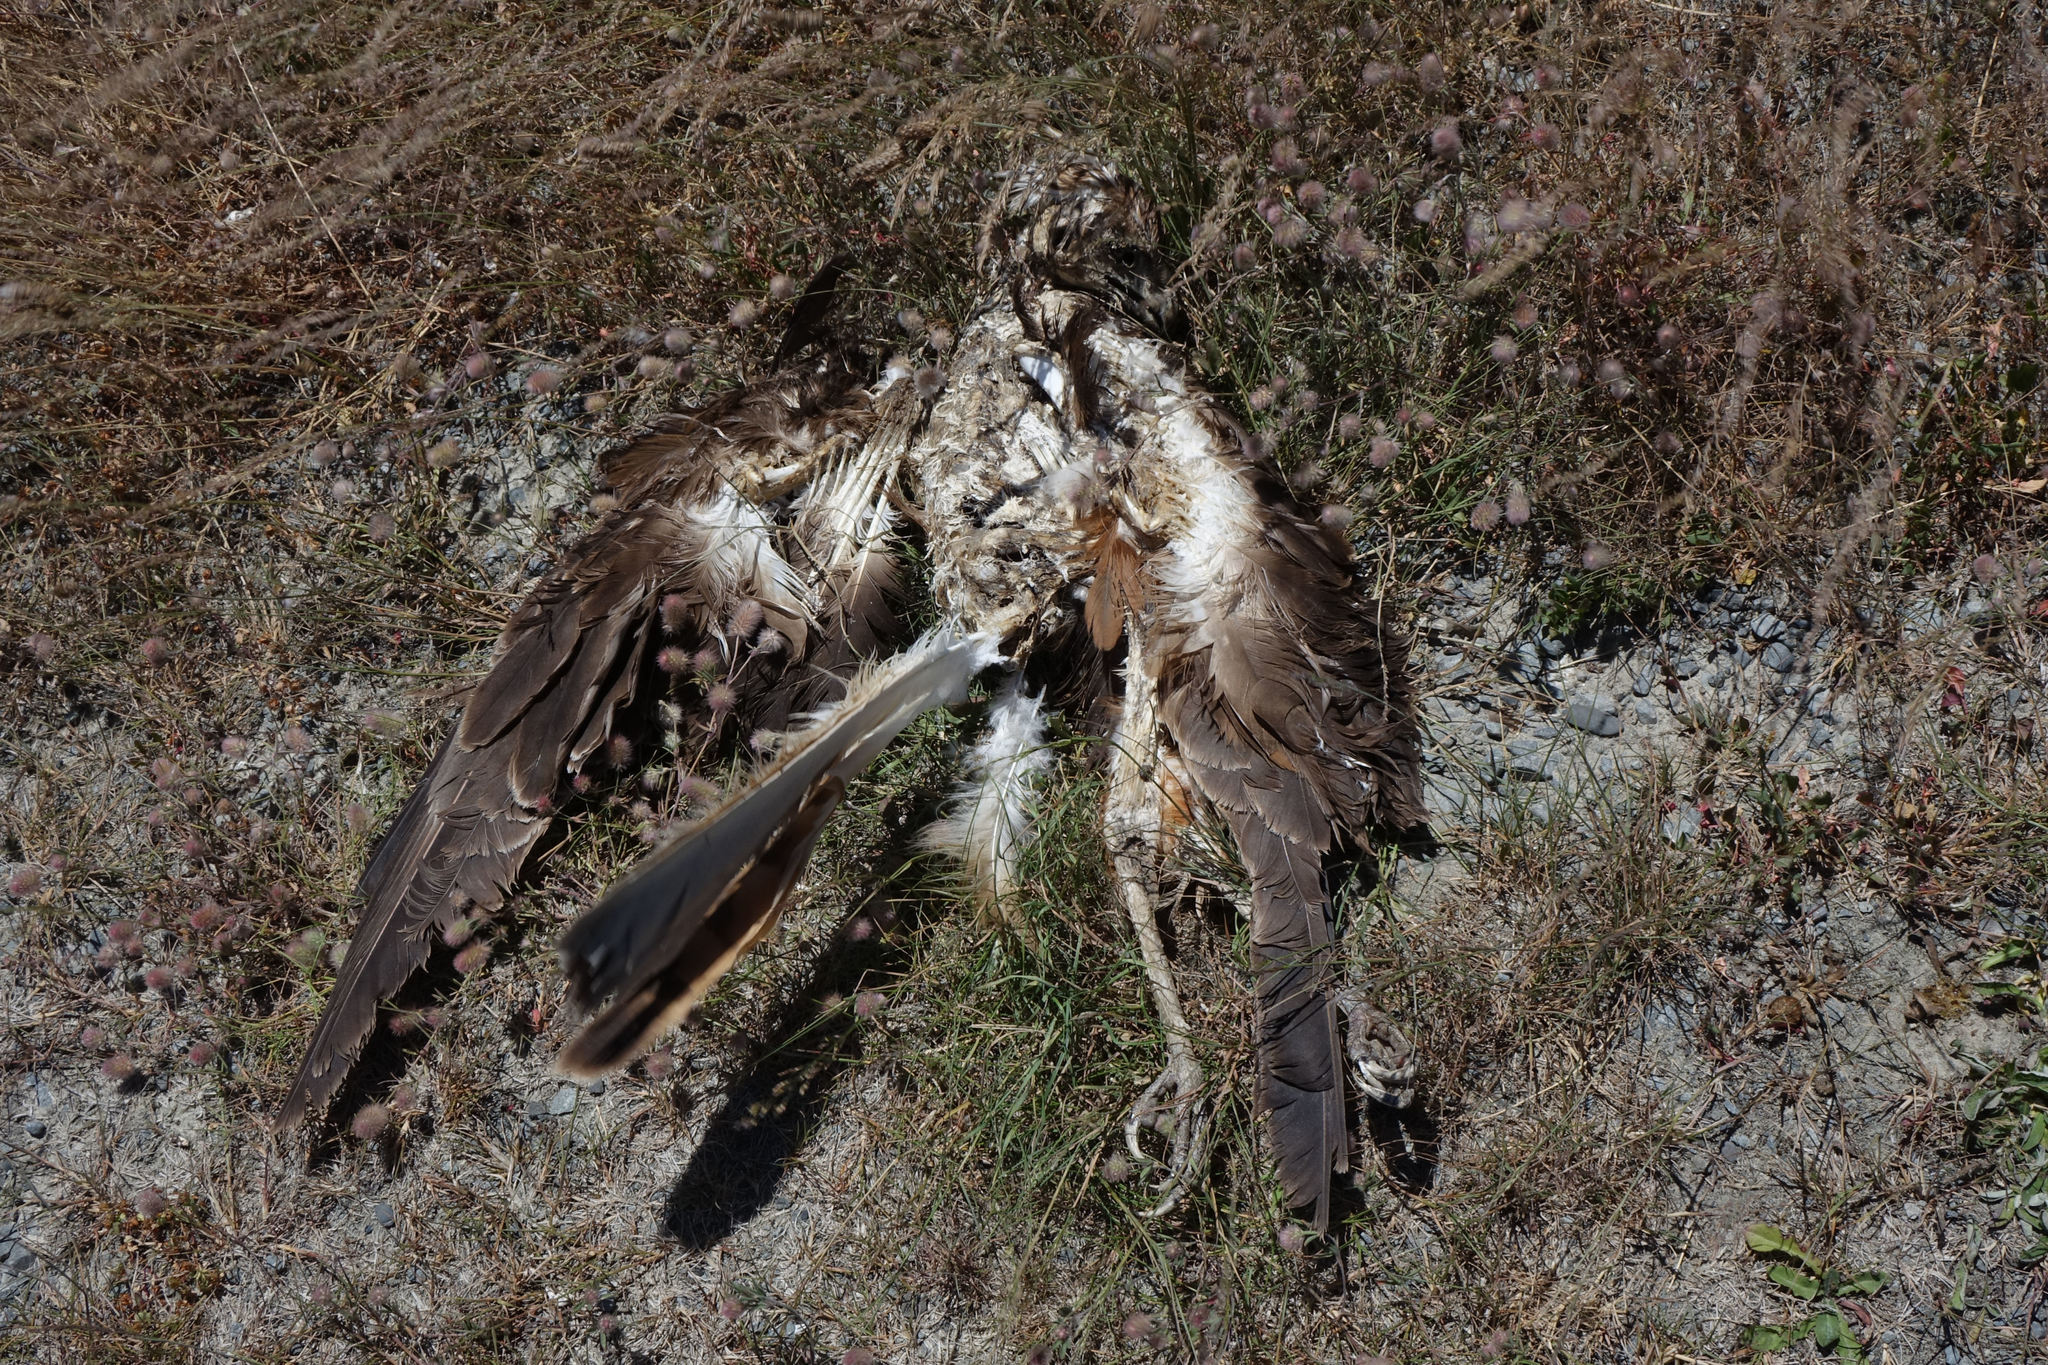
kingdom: Animalia
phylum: Chordata
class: Aves
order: Accipitriformes
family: Accipitridae
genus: Circus
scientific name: Circus approximans
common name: Swamp harrier
